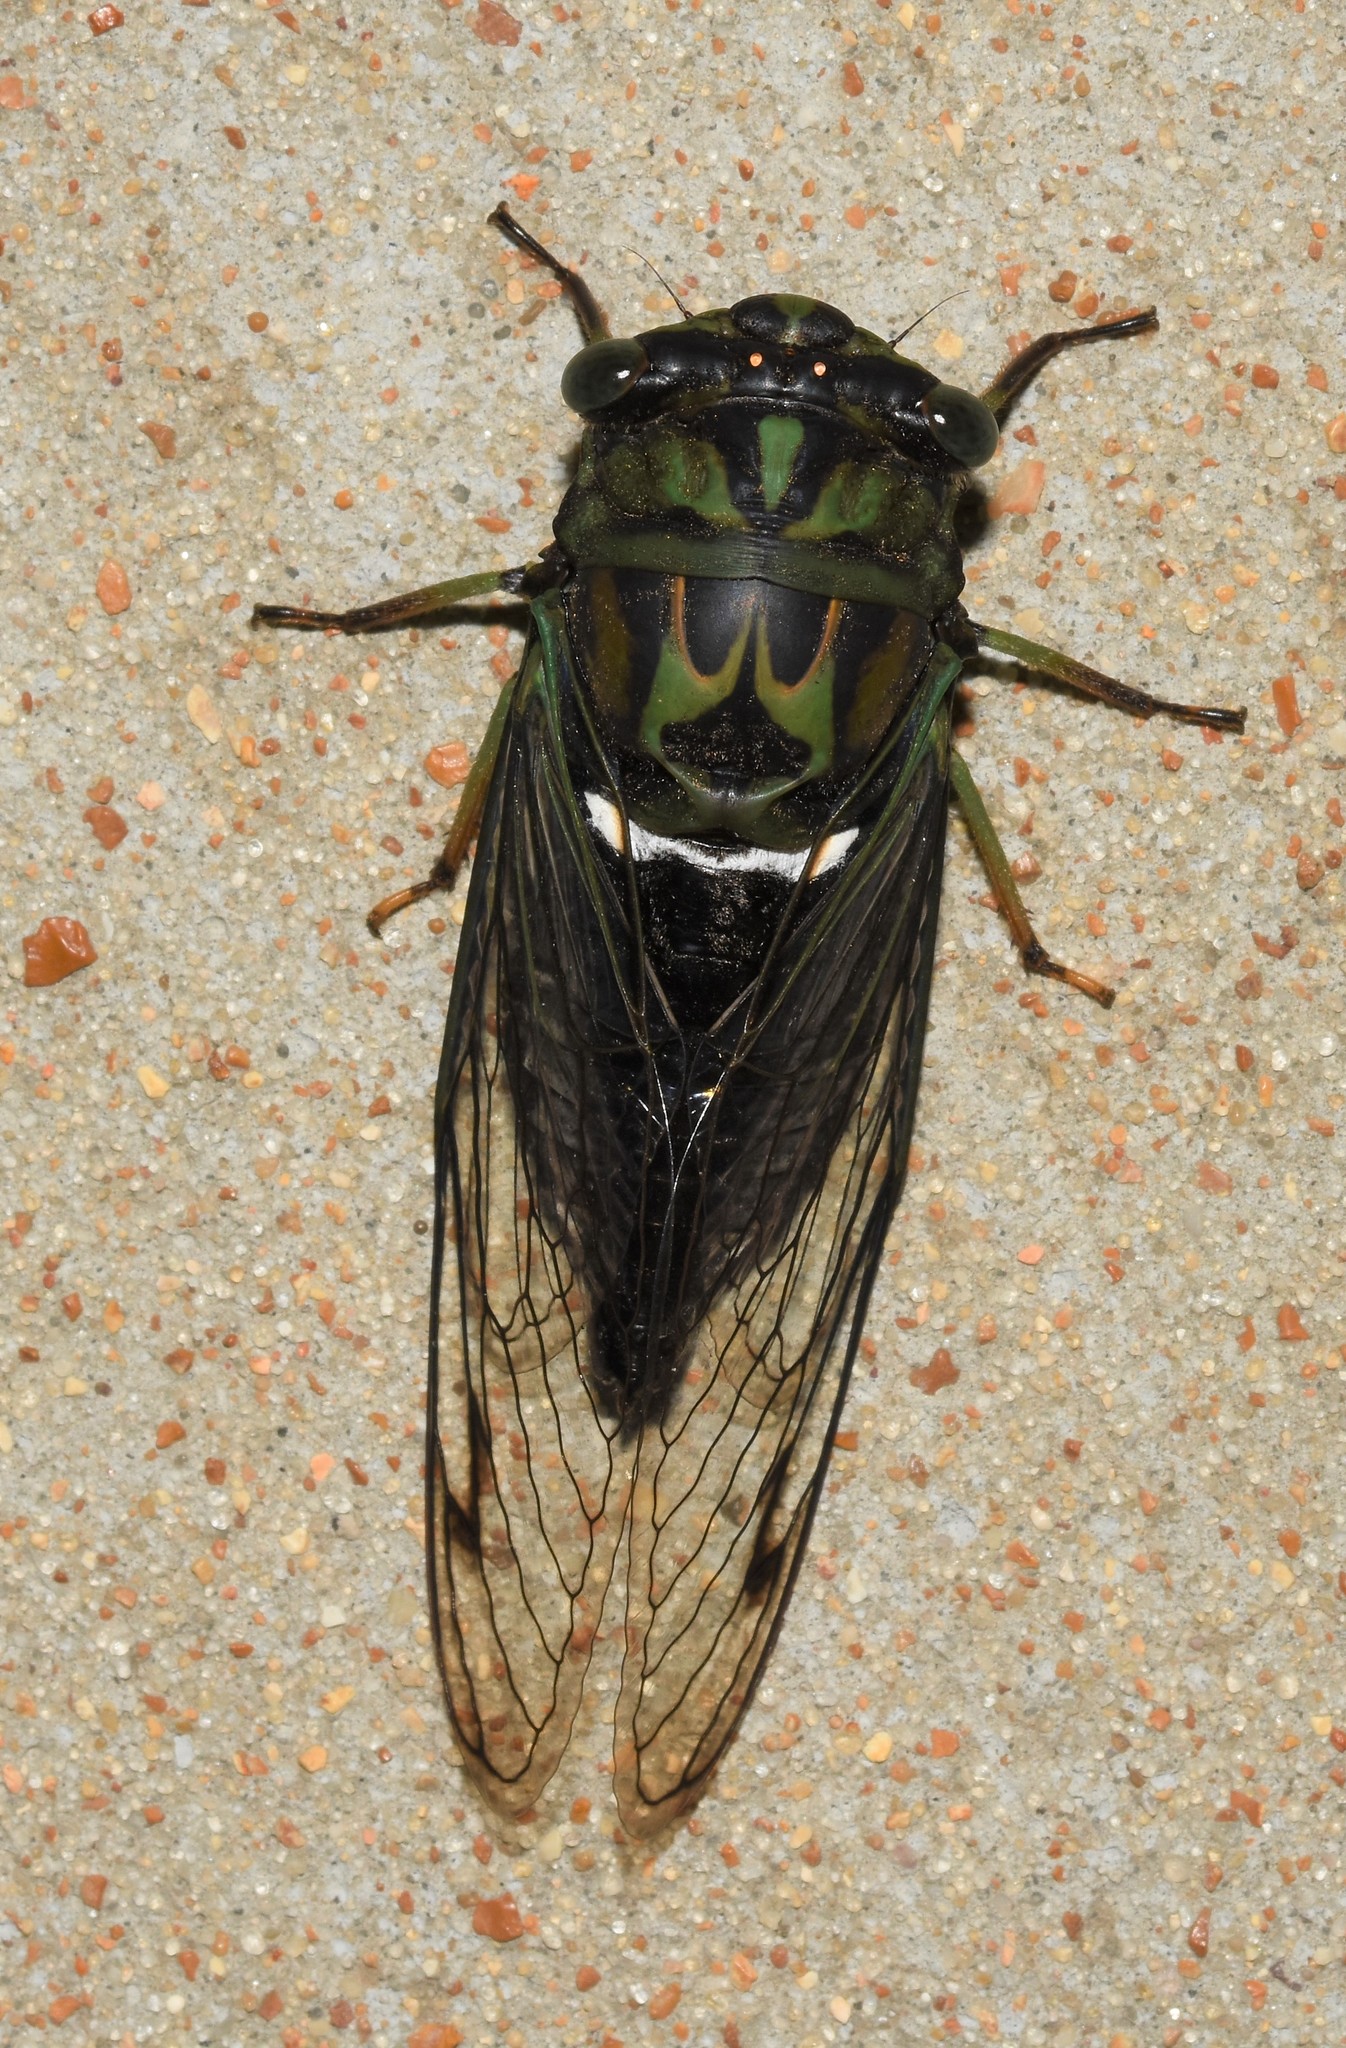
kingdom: Animalia
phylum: Arthropoda
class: Insecta
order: Hemiptera
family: Cicadidae
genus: Neotibicen
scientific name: Neotibicen robinsonianus
